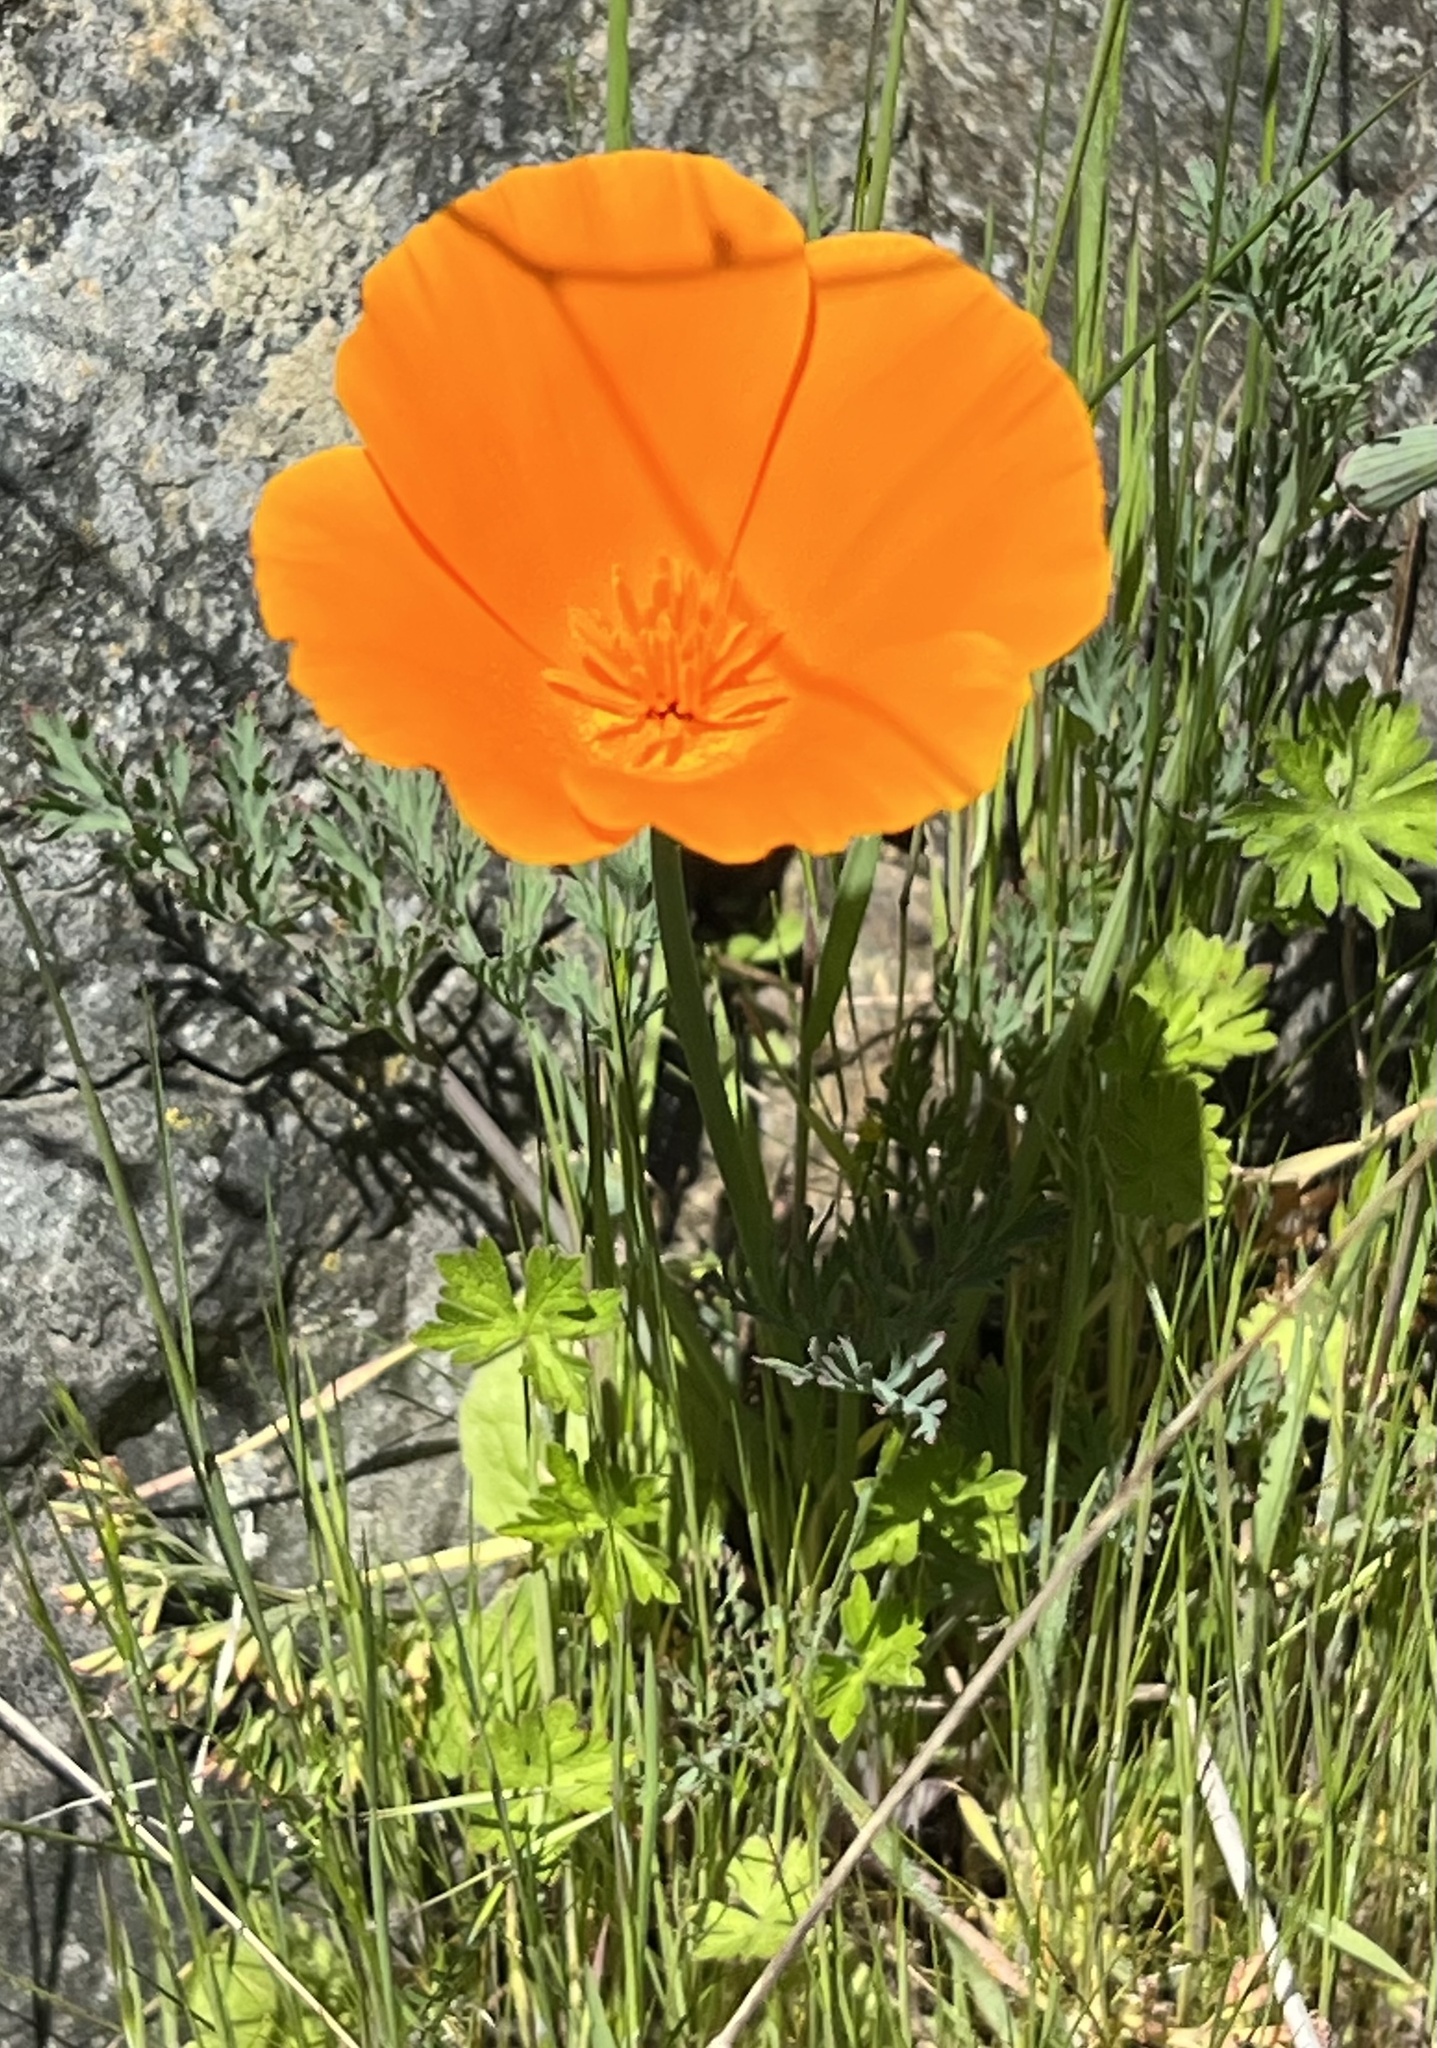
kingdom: Plantae
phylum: Tracheophyta
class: Magnoliopsida
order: Ranunculales
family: Papaveraceae
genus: Eschscholzia
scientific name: Eschscholzia californica
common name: California poppy
